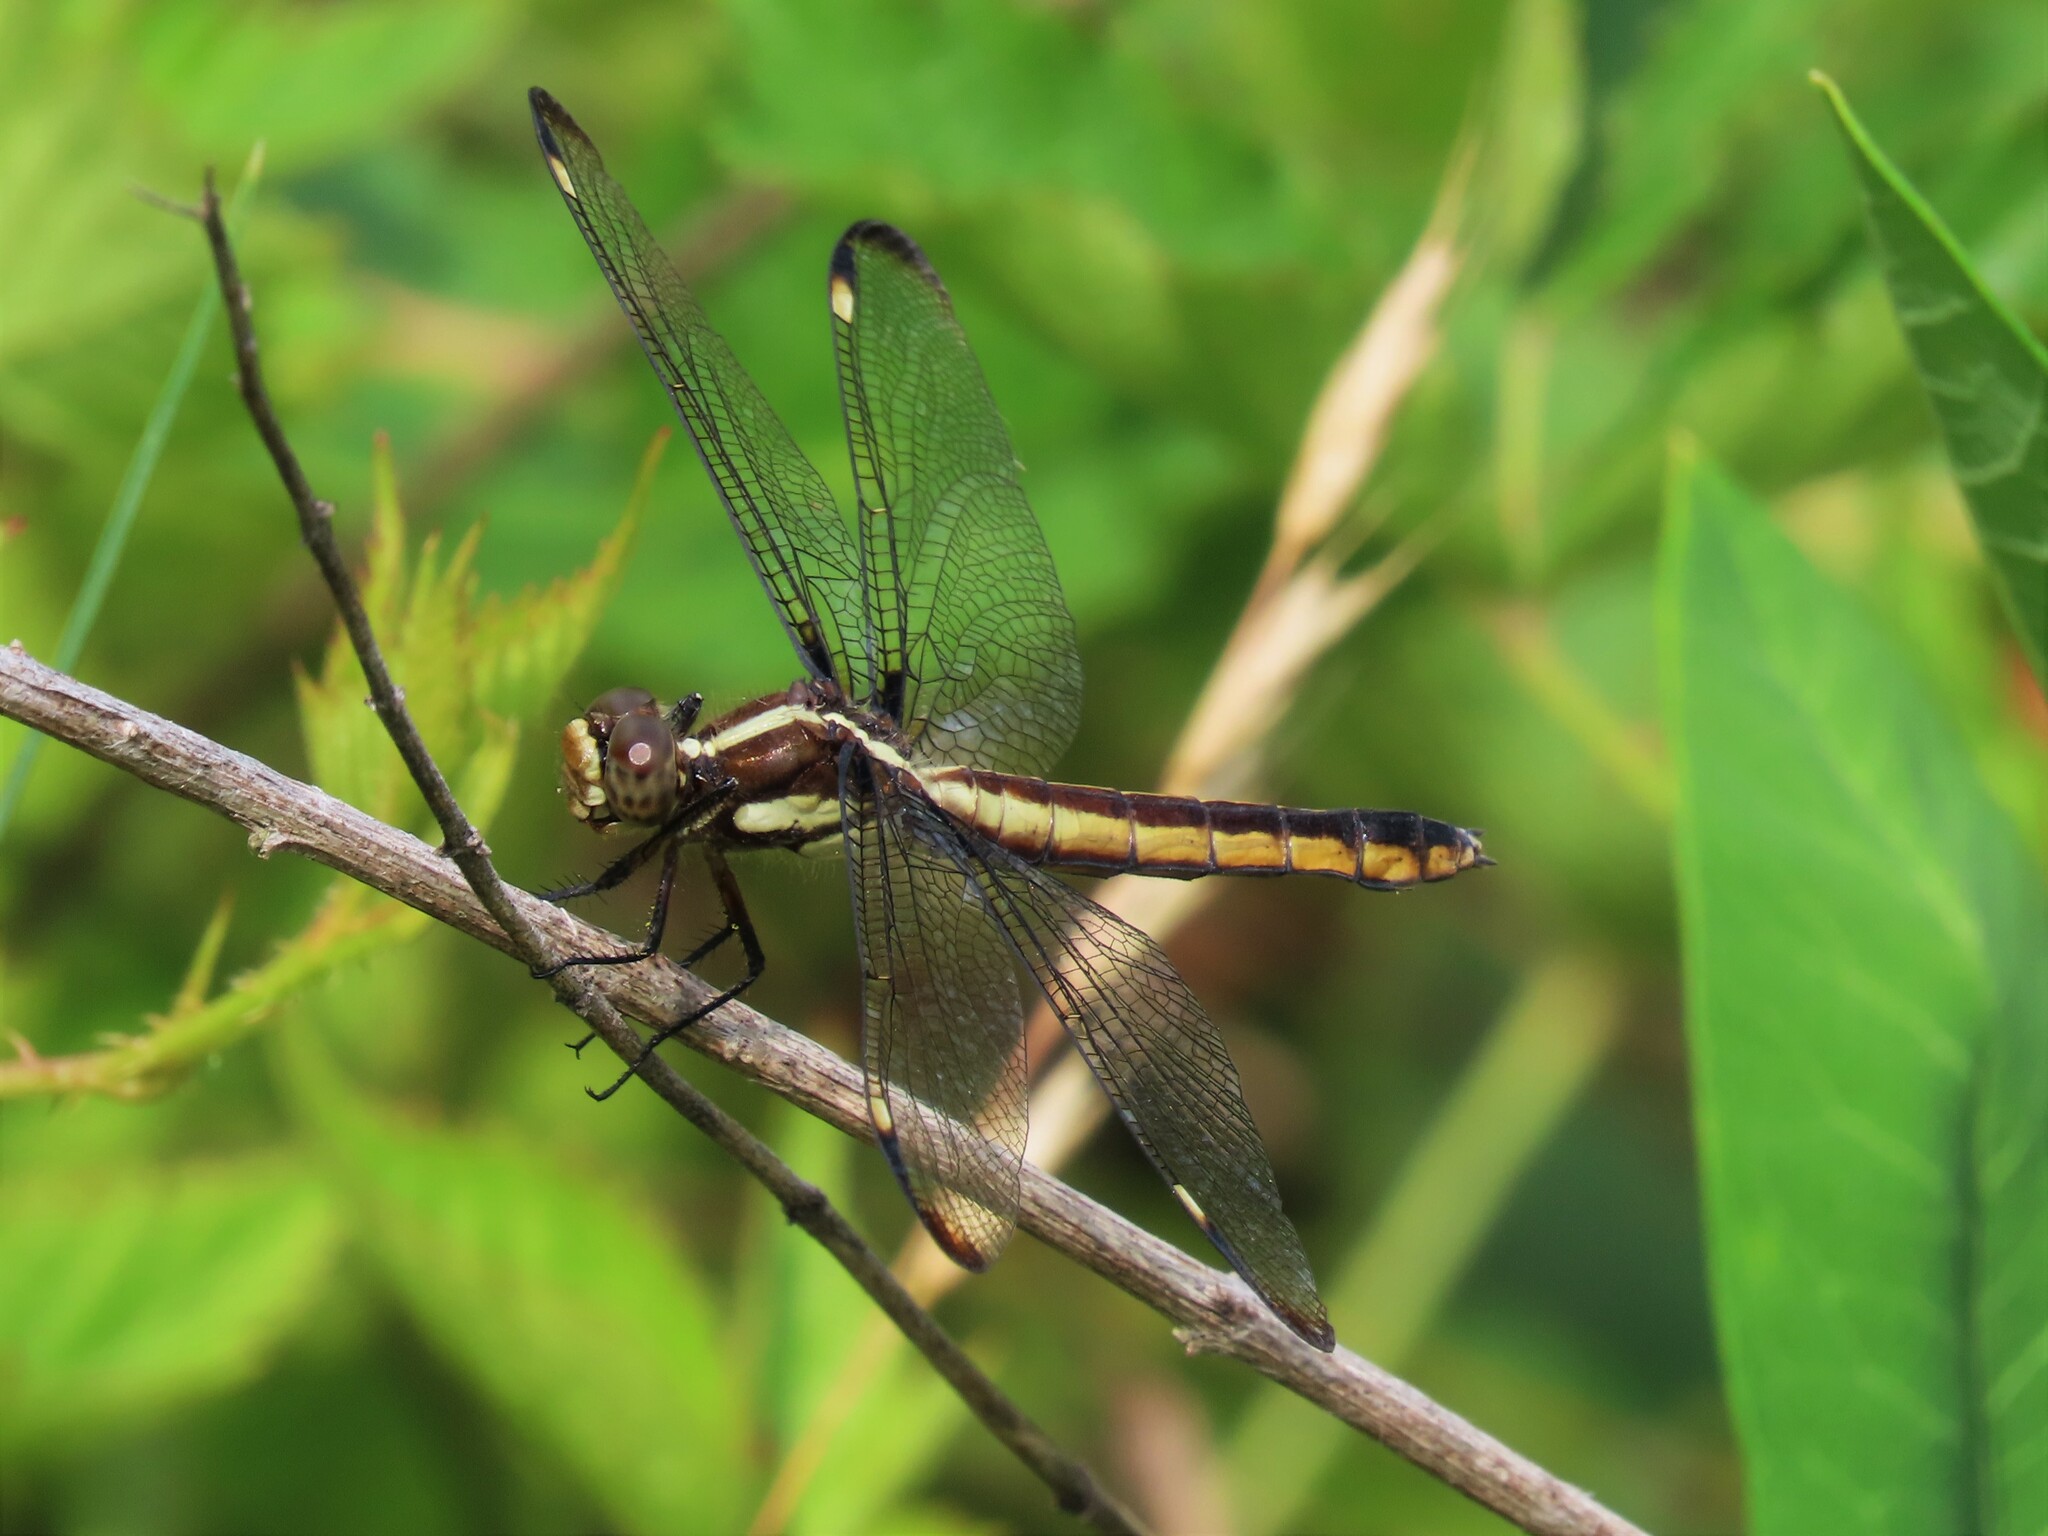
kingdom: Animalia
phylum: Arthropoda
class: Insecta
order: Odonata
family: Libellulidae
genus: Libellula
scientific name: Libellula cyanea
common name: Spangled skimmer
